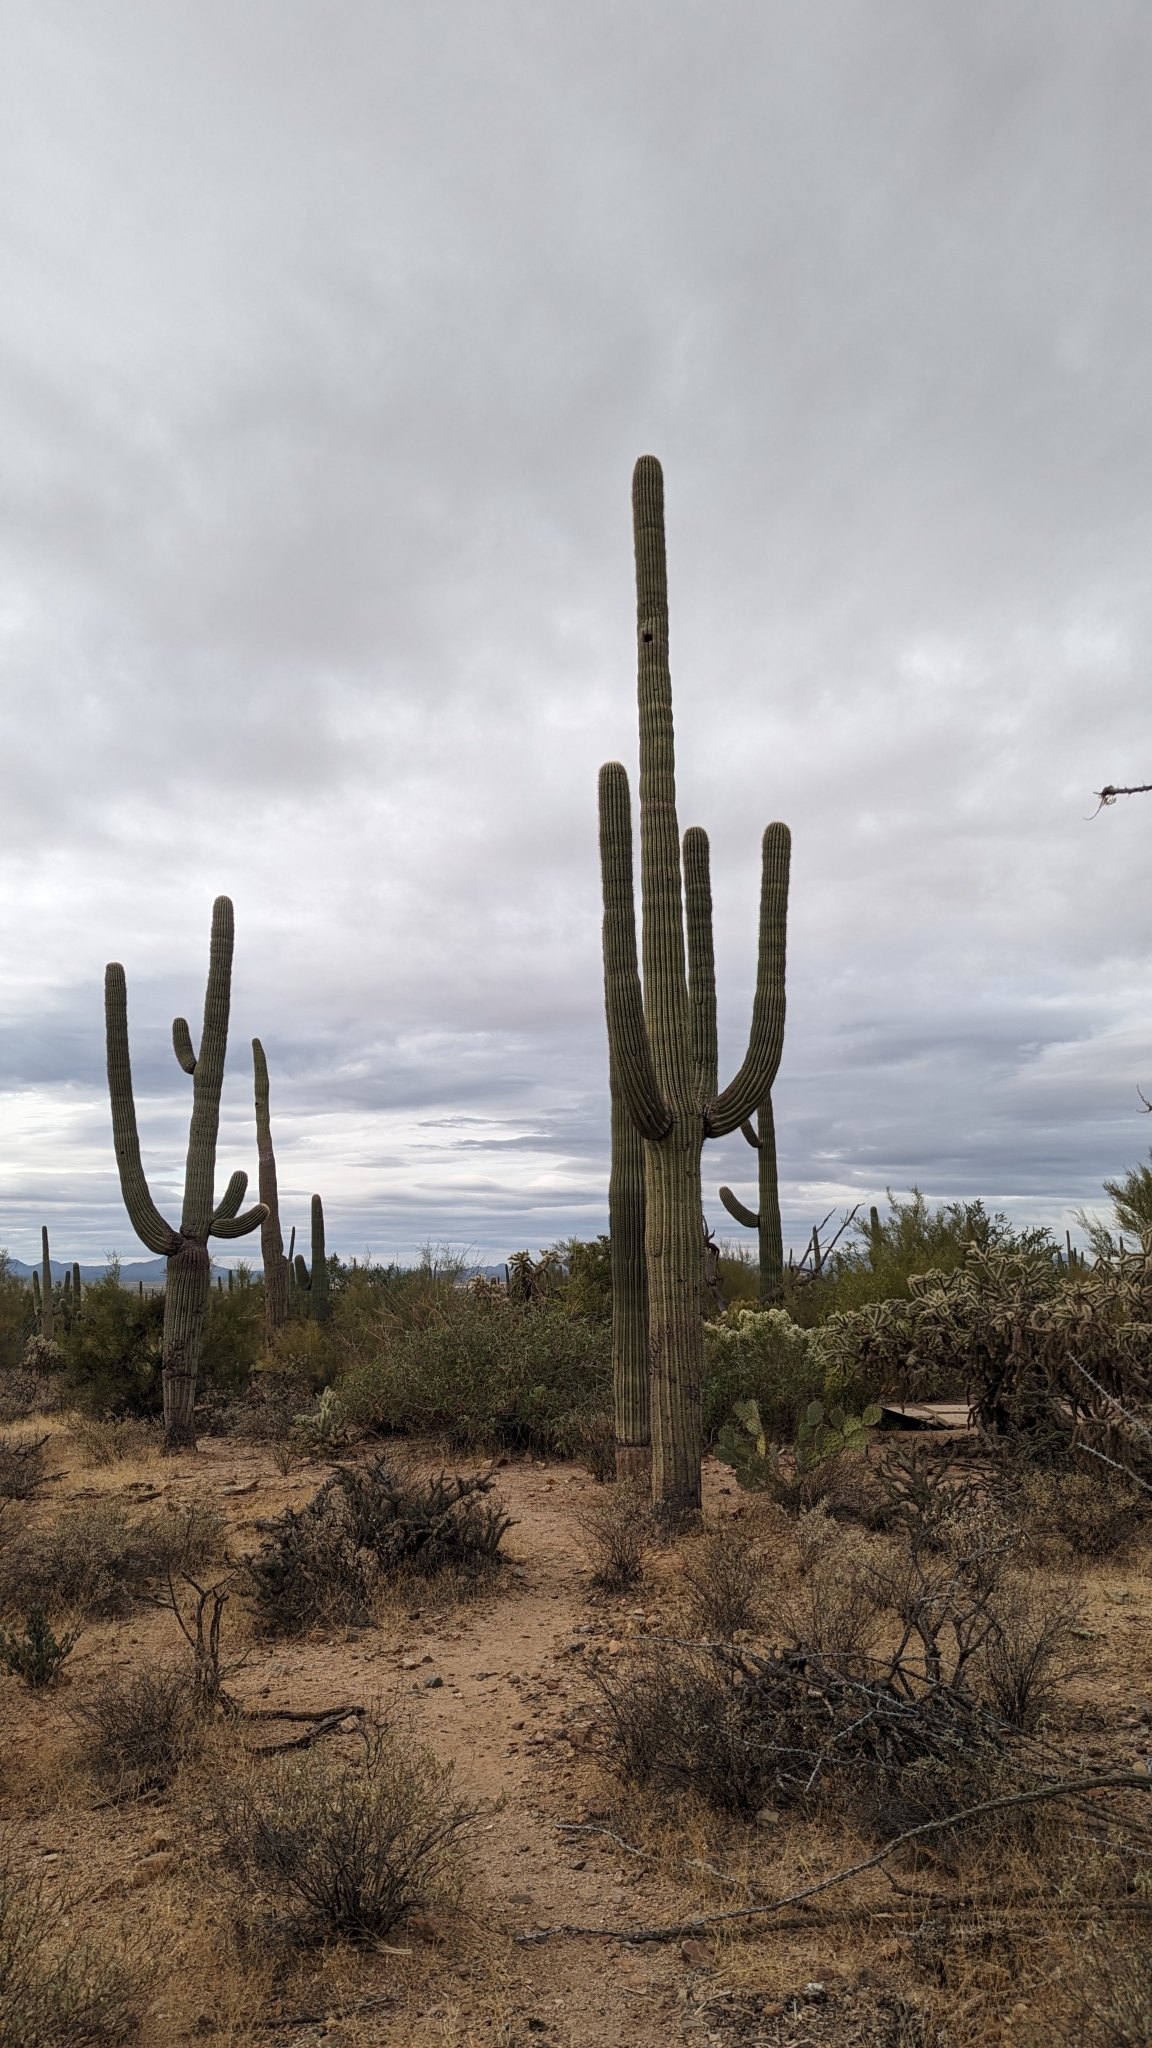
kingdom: Plantae
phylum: Tracheophyta
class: Magnoliopsida
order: Caryophyllales
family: Cactaceae
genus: Carnegiea
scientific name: Carnegiea gigantea
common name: Saguaro
